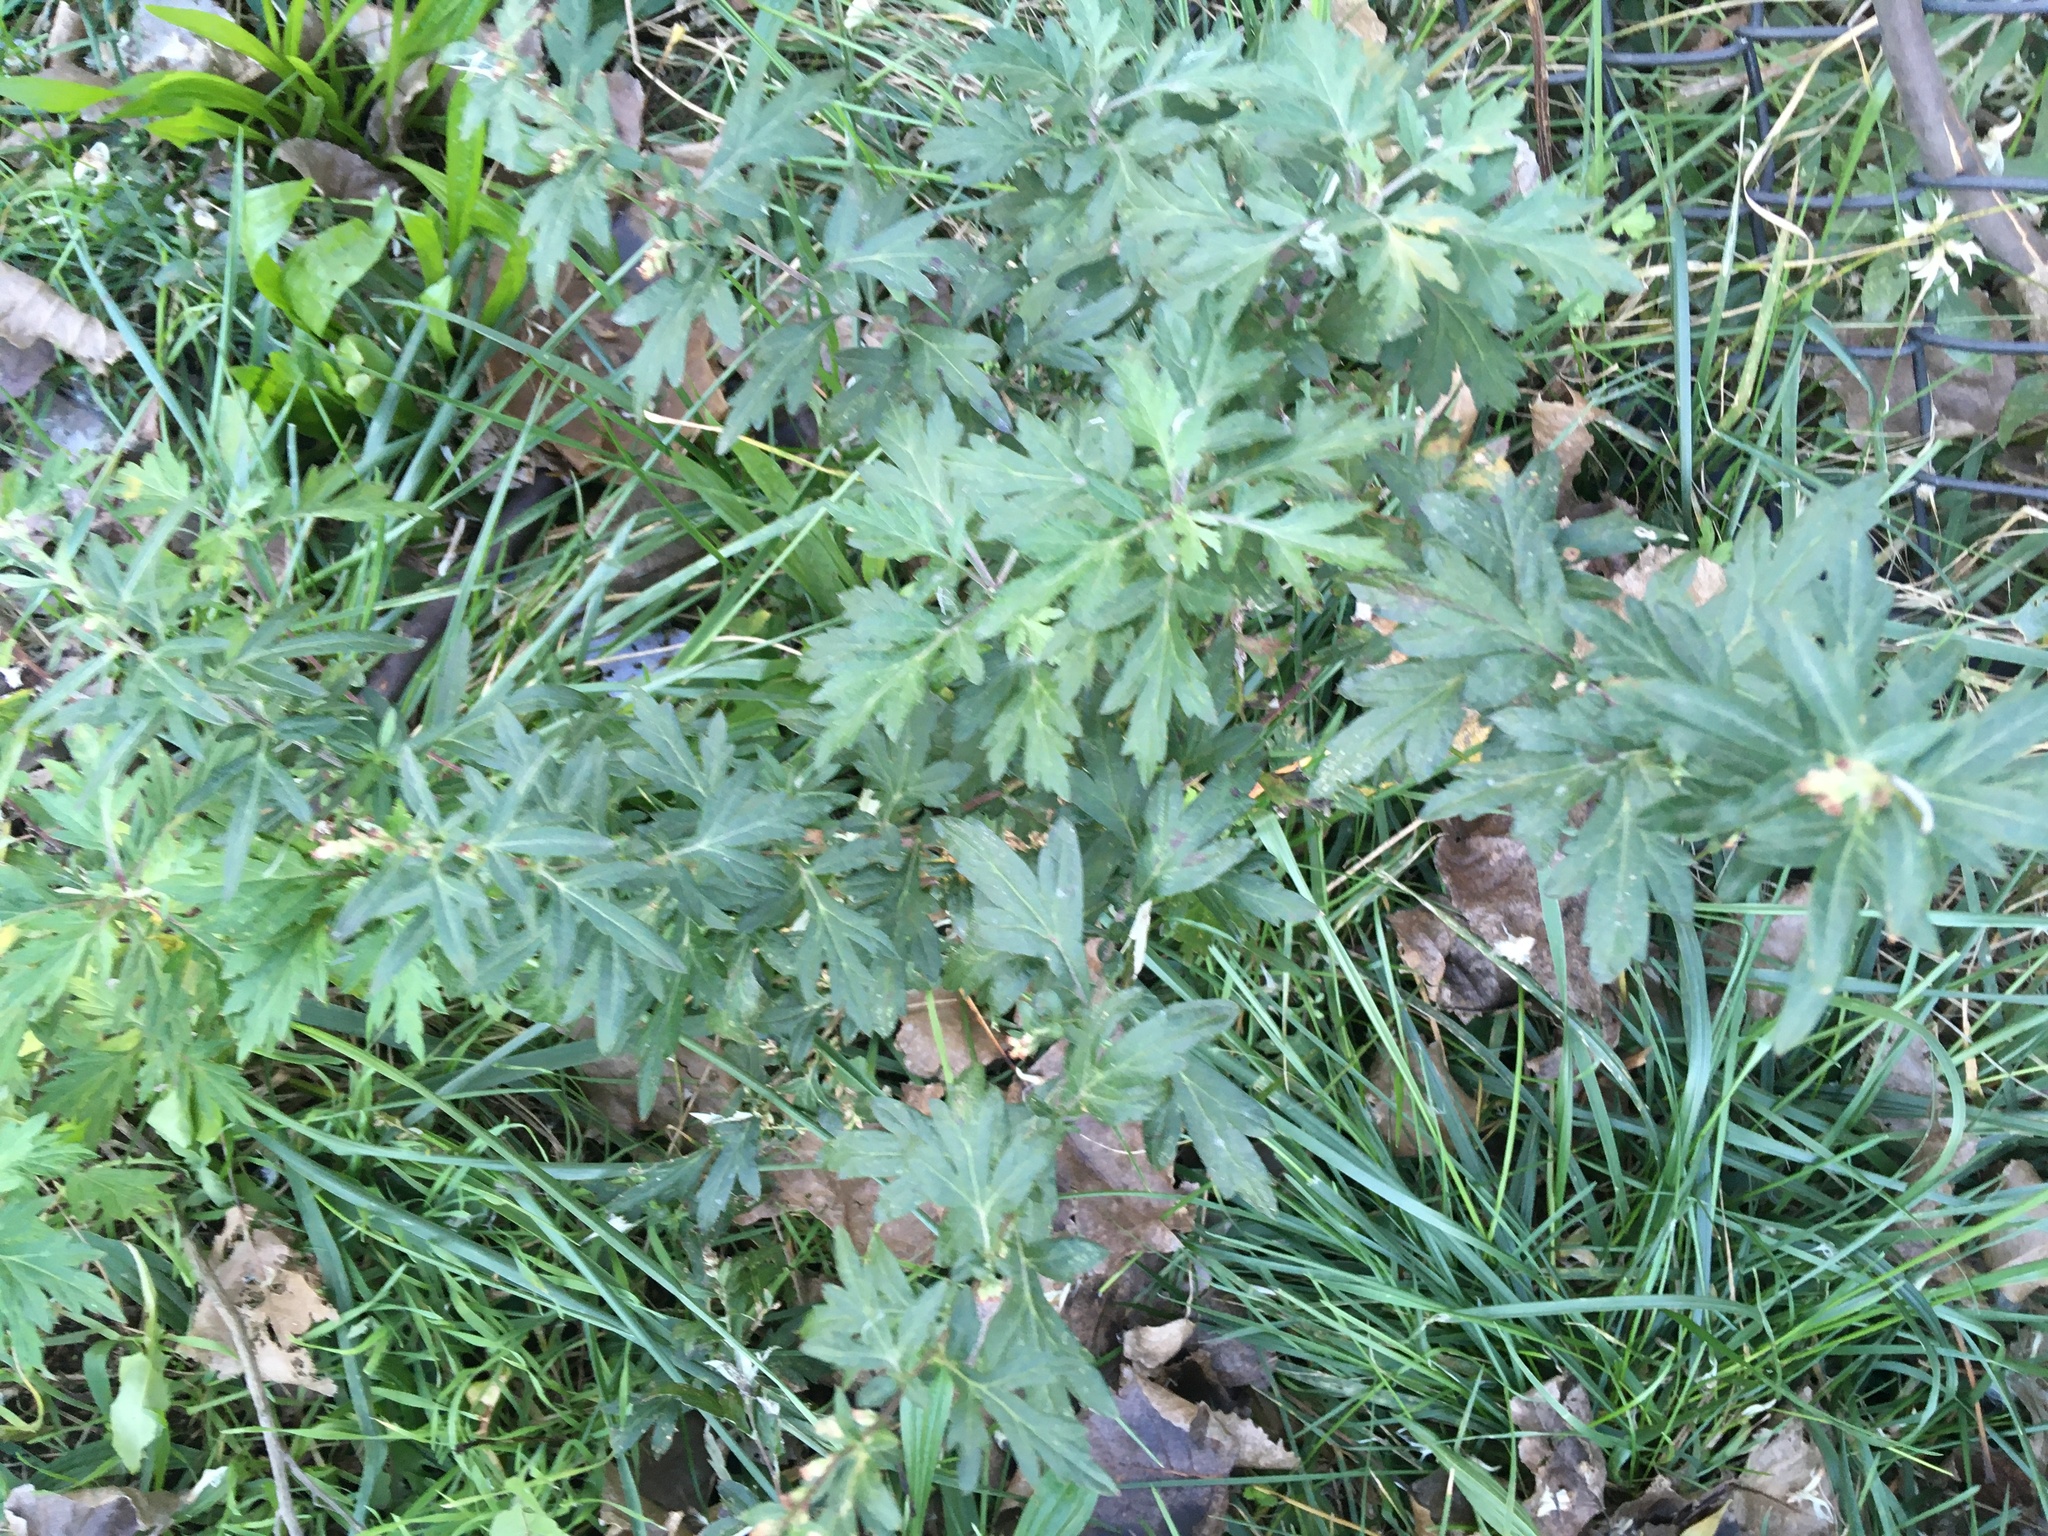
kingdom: Plantae
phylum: Tracheophyta
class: Magnoliopsida
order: Asterales
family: Asteraceae
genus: Artemisia
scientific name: Artemisia vulgaris
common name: Mugwort
